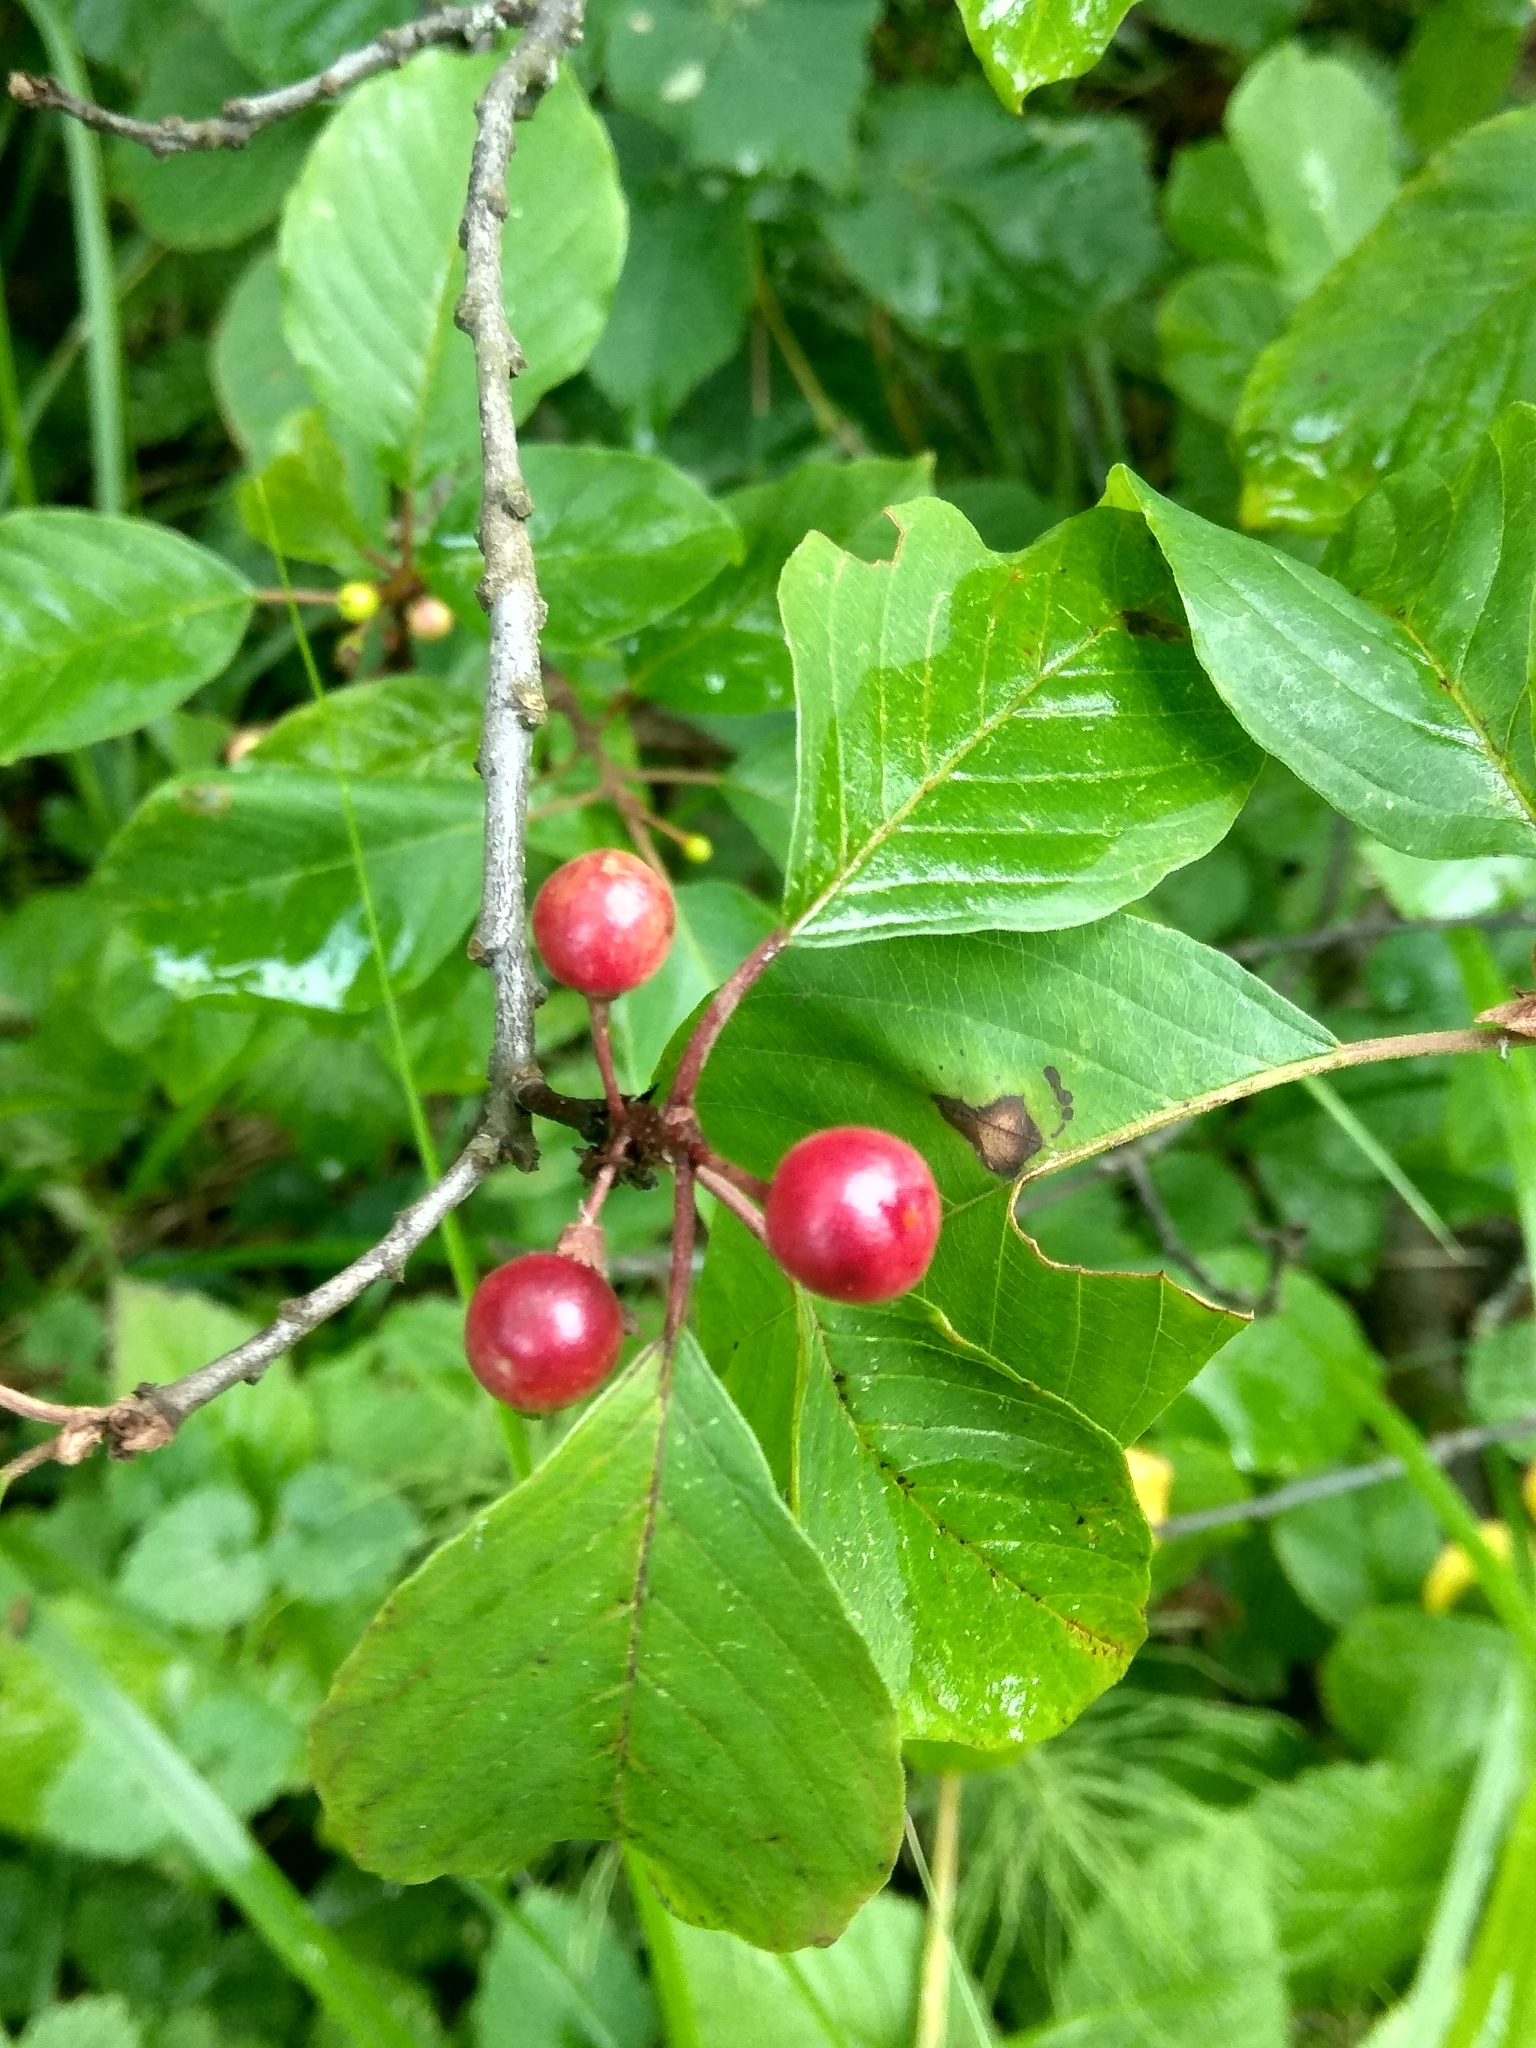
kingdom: Plantae
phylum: Tracheophyta
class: Magnoliopsida
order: Rosales
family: Rhamnaceae
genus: Frangula
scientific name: Frangula alnus
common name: Alder buckthorn
